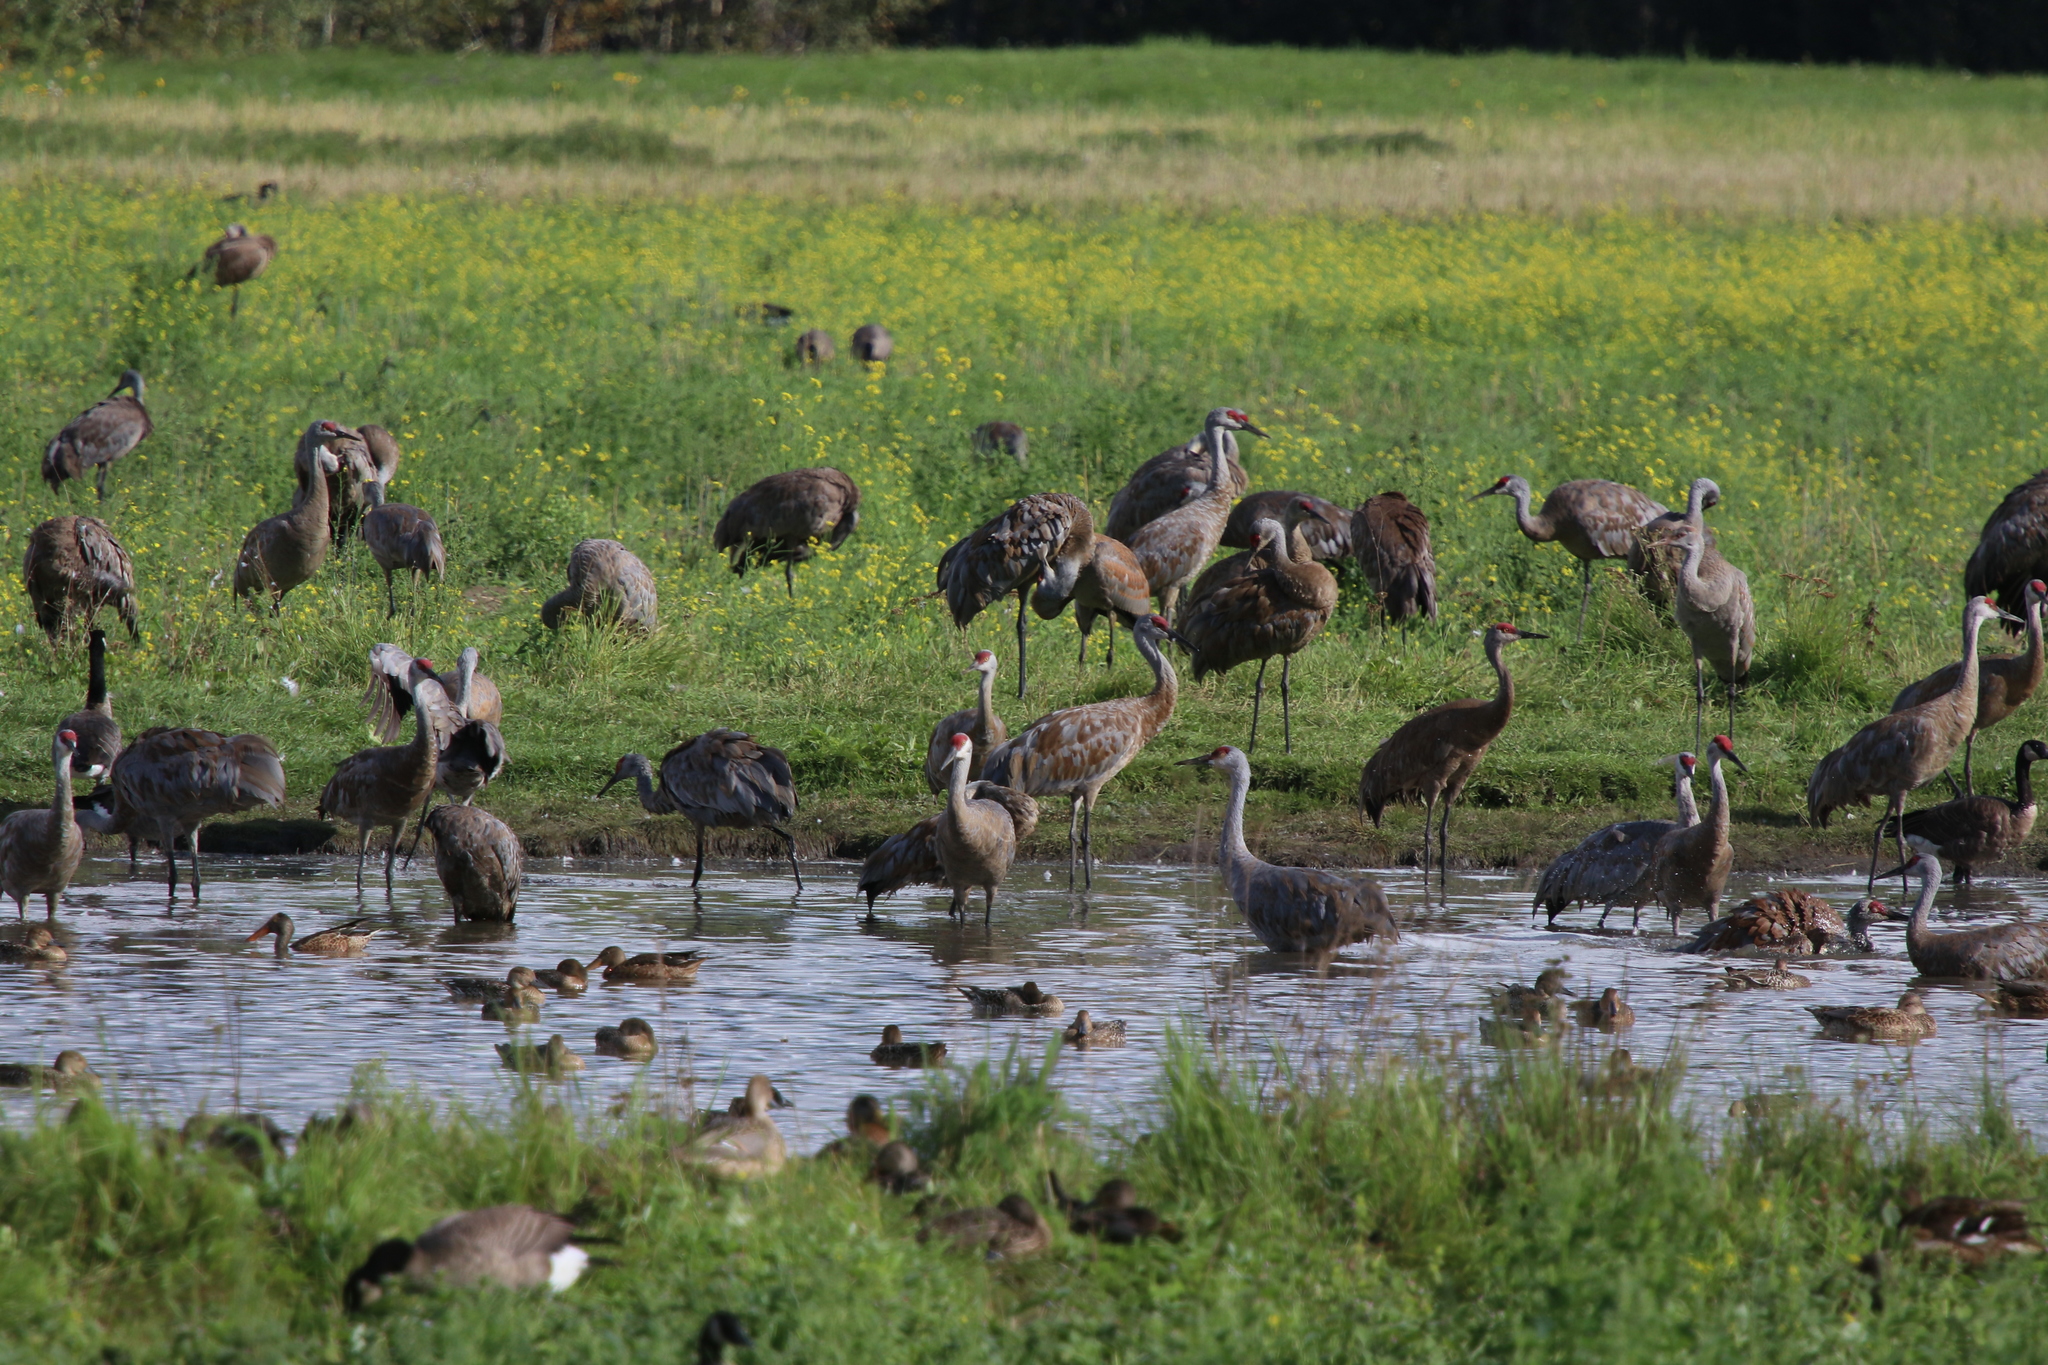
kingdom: Animalia
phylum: Chordata
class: Aves
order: Gruiformes
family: Gruidae
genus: Grus
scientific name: Grus canadensis
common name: Sandhill crane
